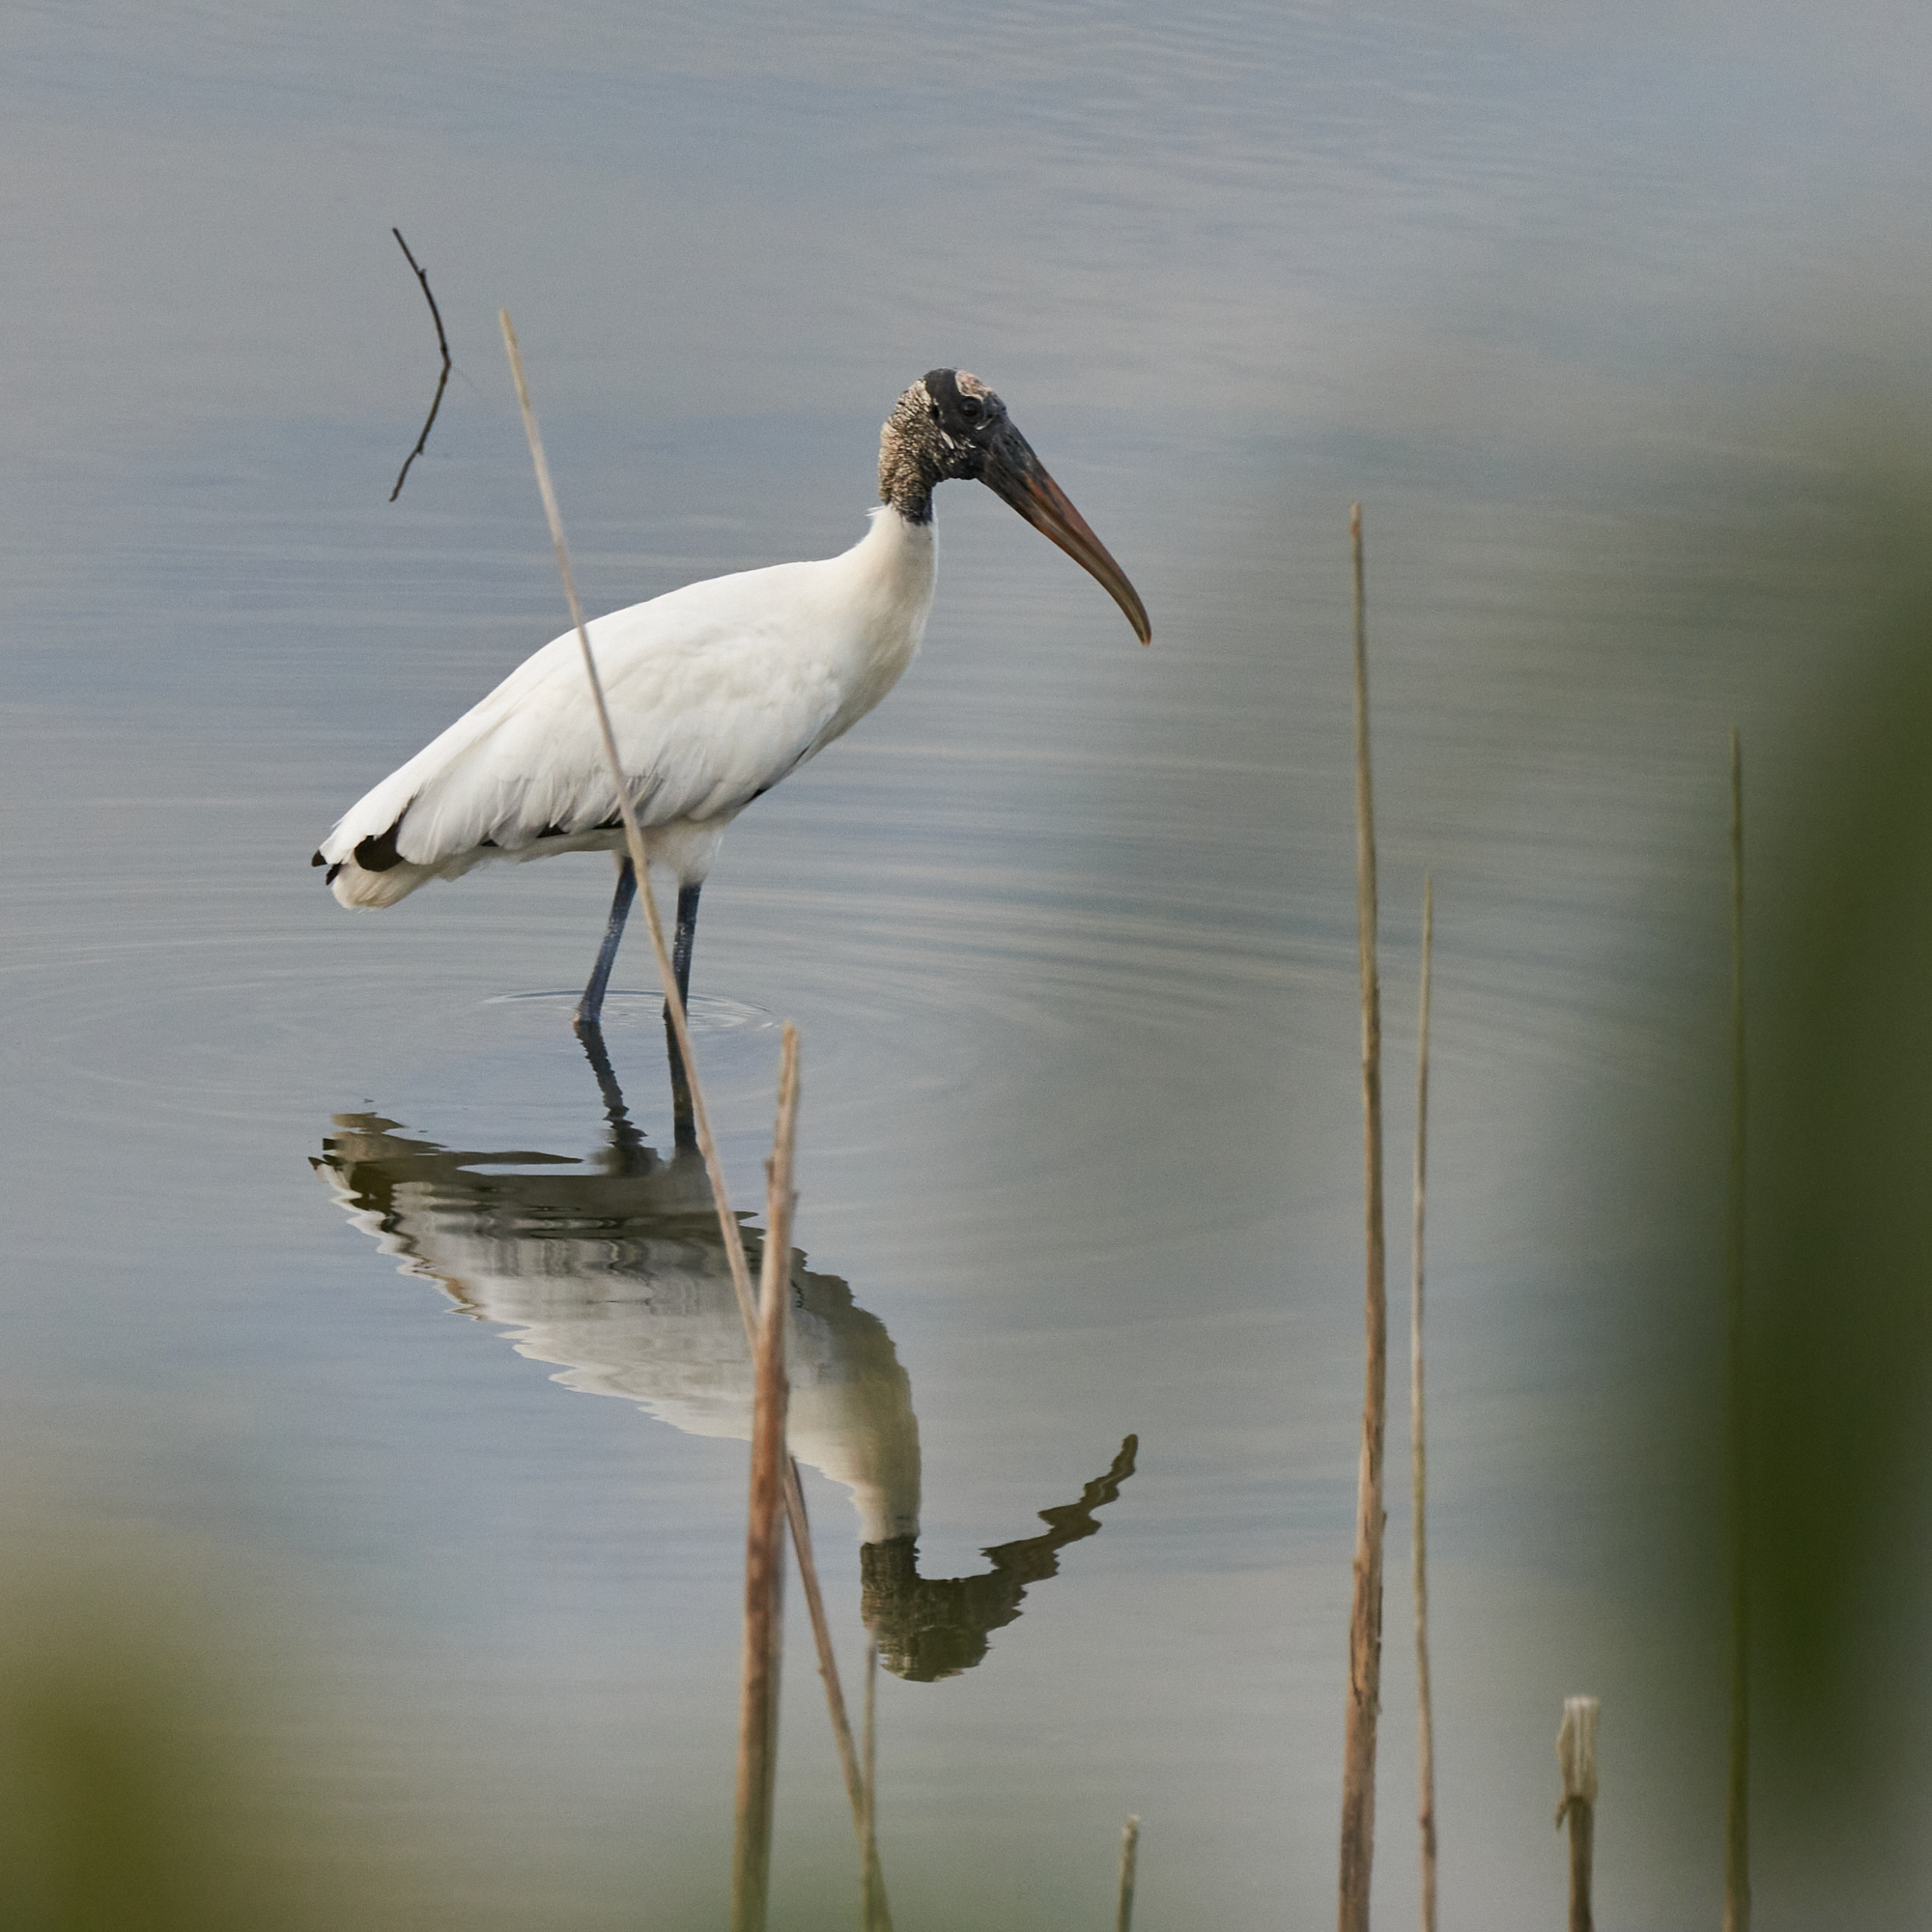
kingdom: Animalia
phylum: Chordata
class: Aves
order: Ciconiiformes
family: Ciconiidae
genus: Mycteria
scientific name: Mycteria americana
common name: Wood stork
